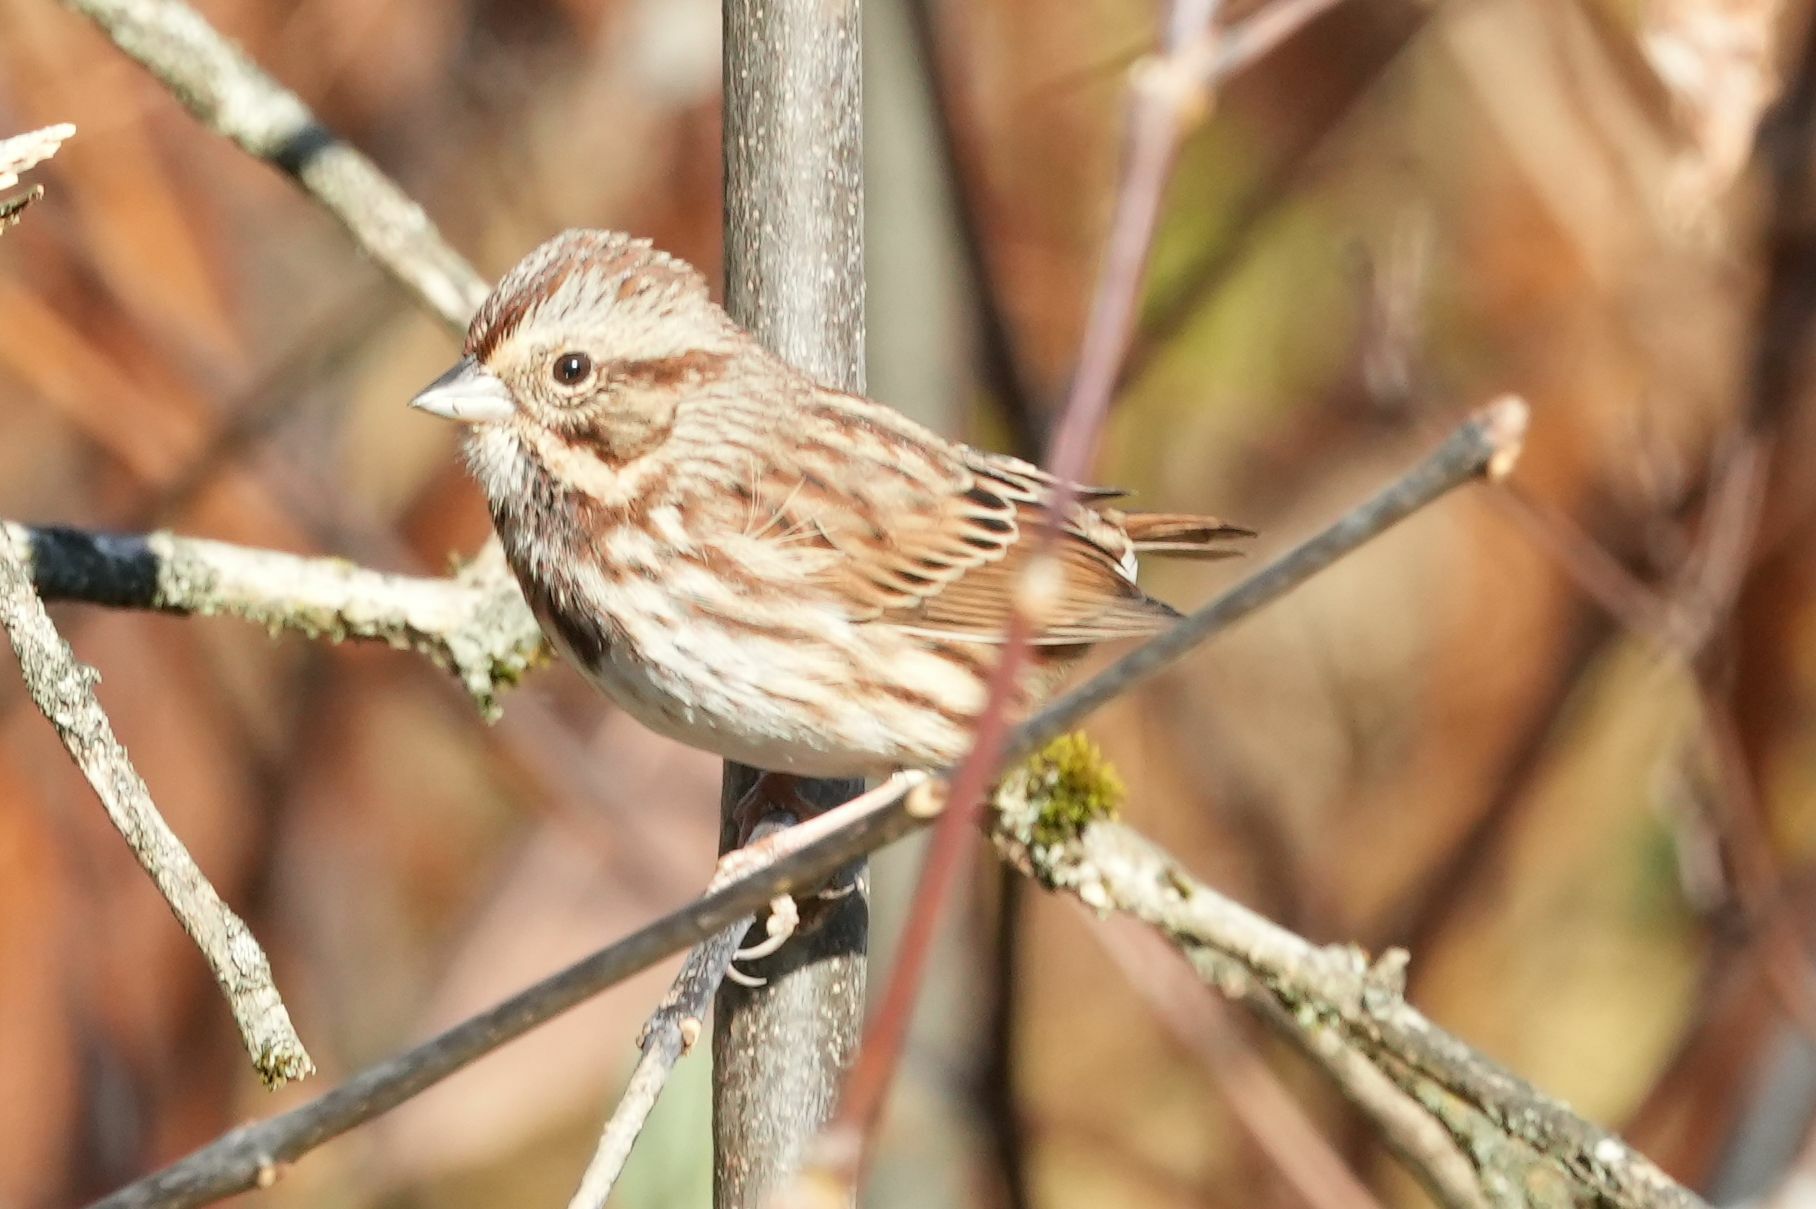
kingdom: Animalia
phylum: Chordata
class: Aves
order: Passeriformes
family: Passerellidae
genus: Melospiza
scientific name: Melospiza melodia
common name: Song sparrow
